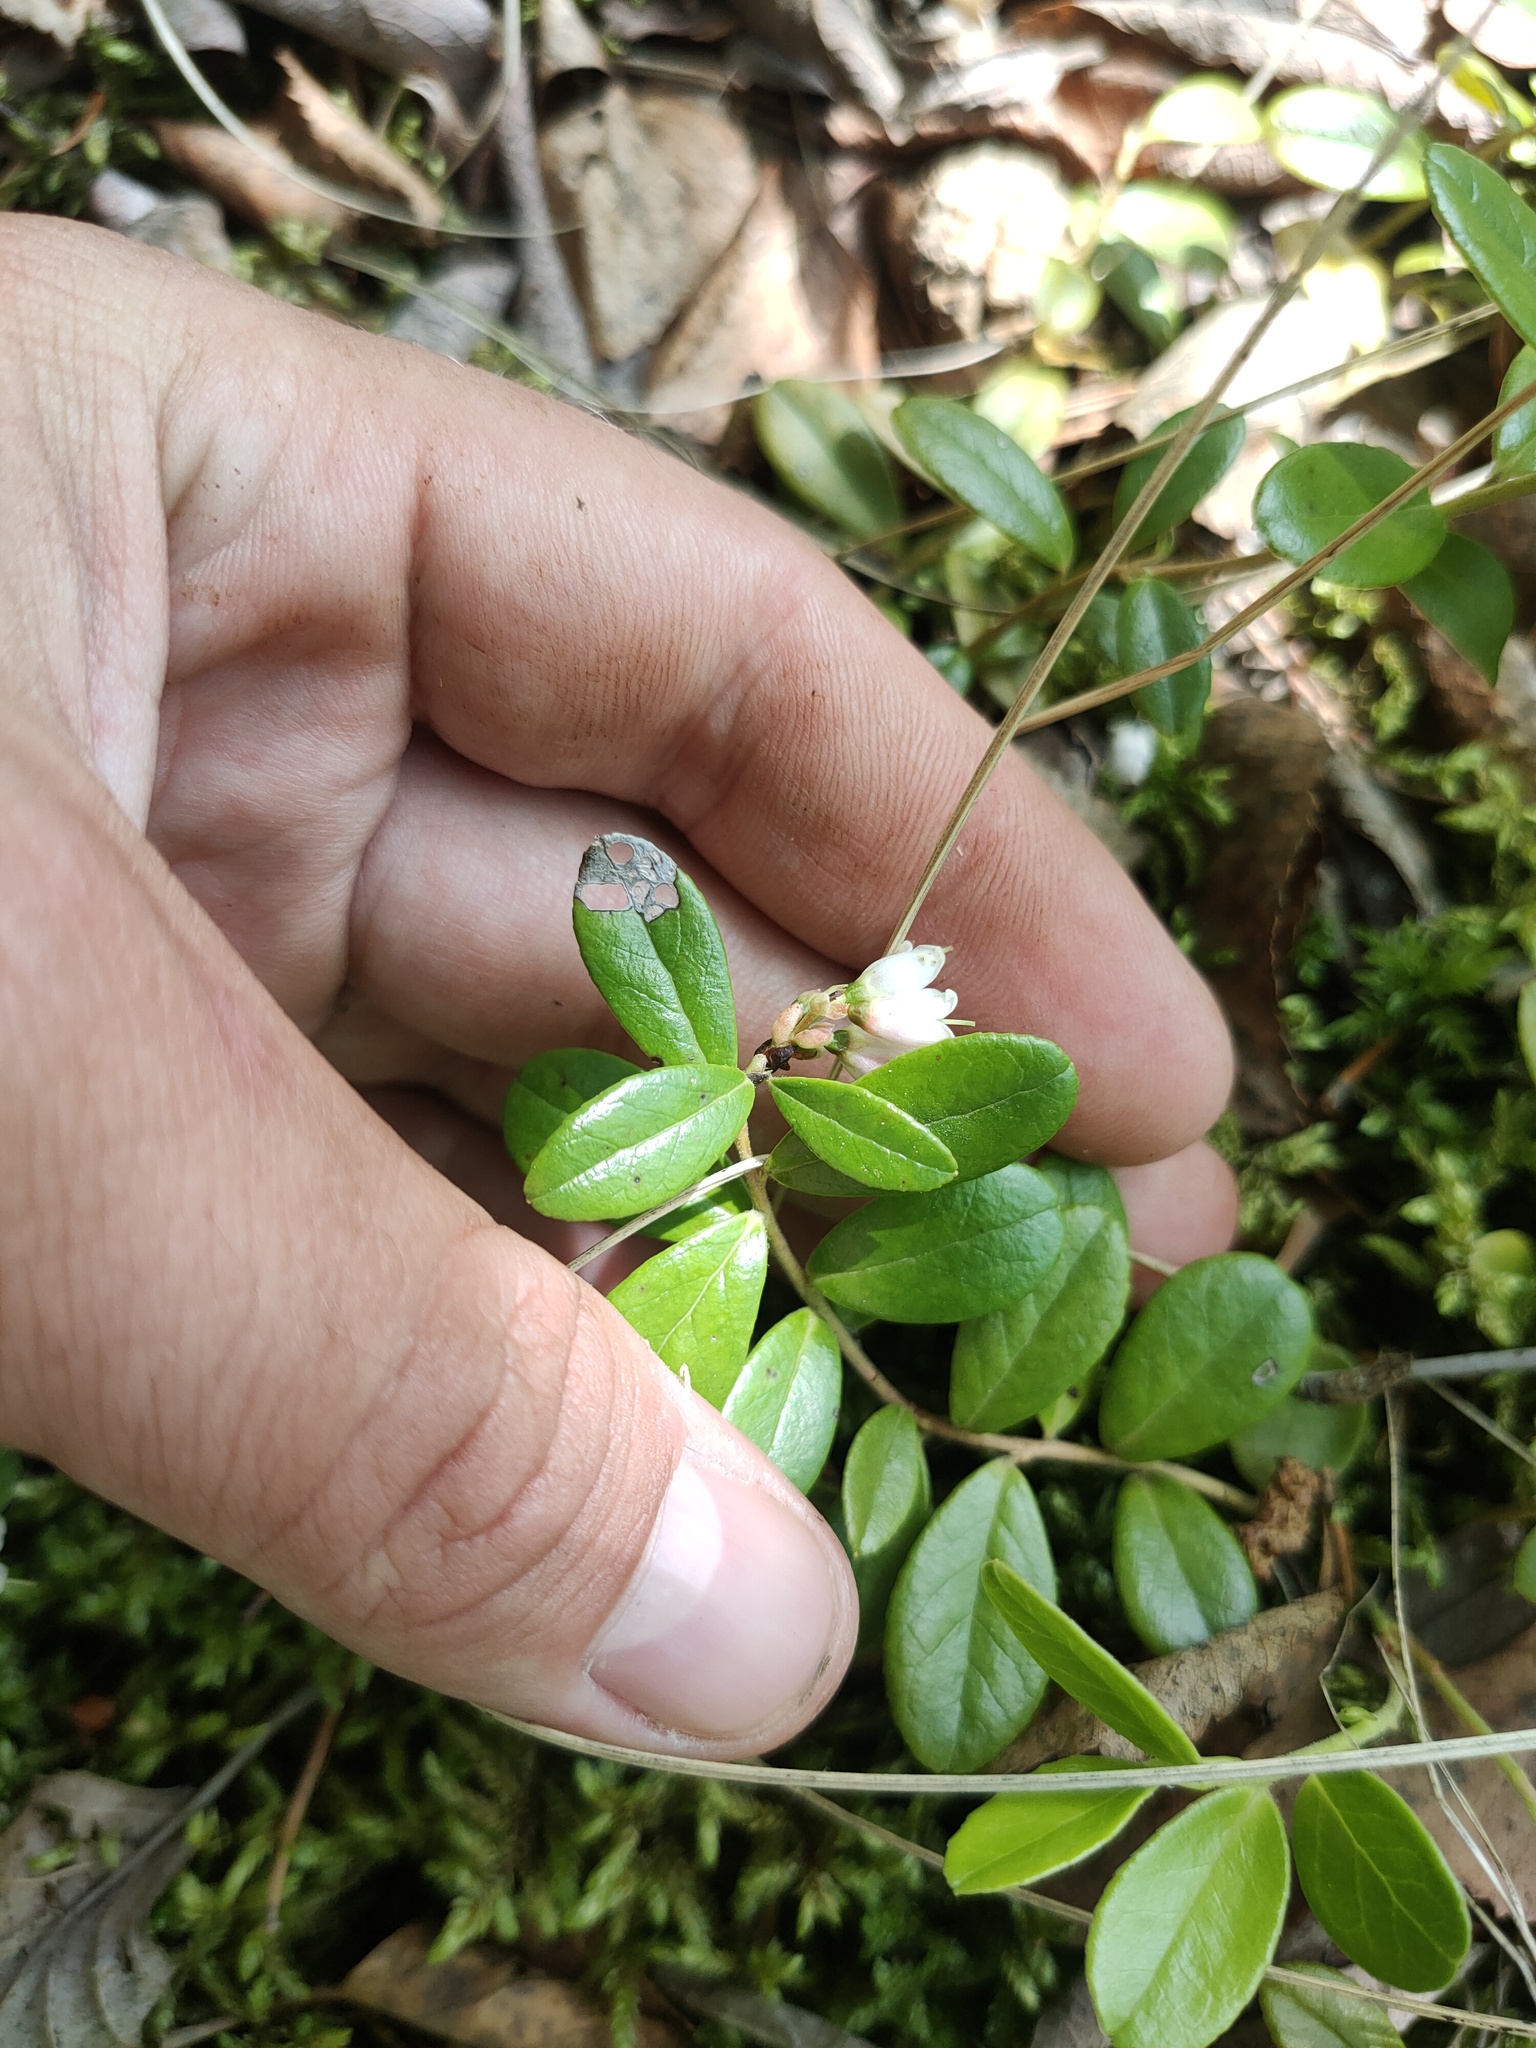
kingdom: Plantae
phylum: Tracheophyta
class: Magnoliopsida
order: Ericales
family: Ericaceae
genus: Vaccinium
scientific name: Vaccinium vitis-idaea
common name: Cowberry
